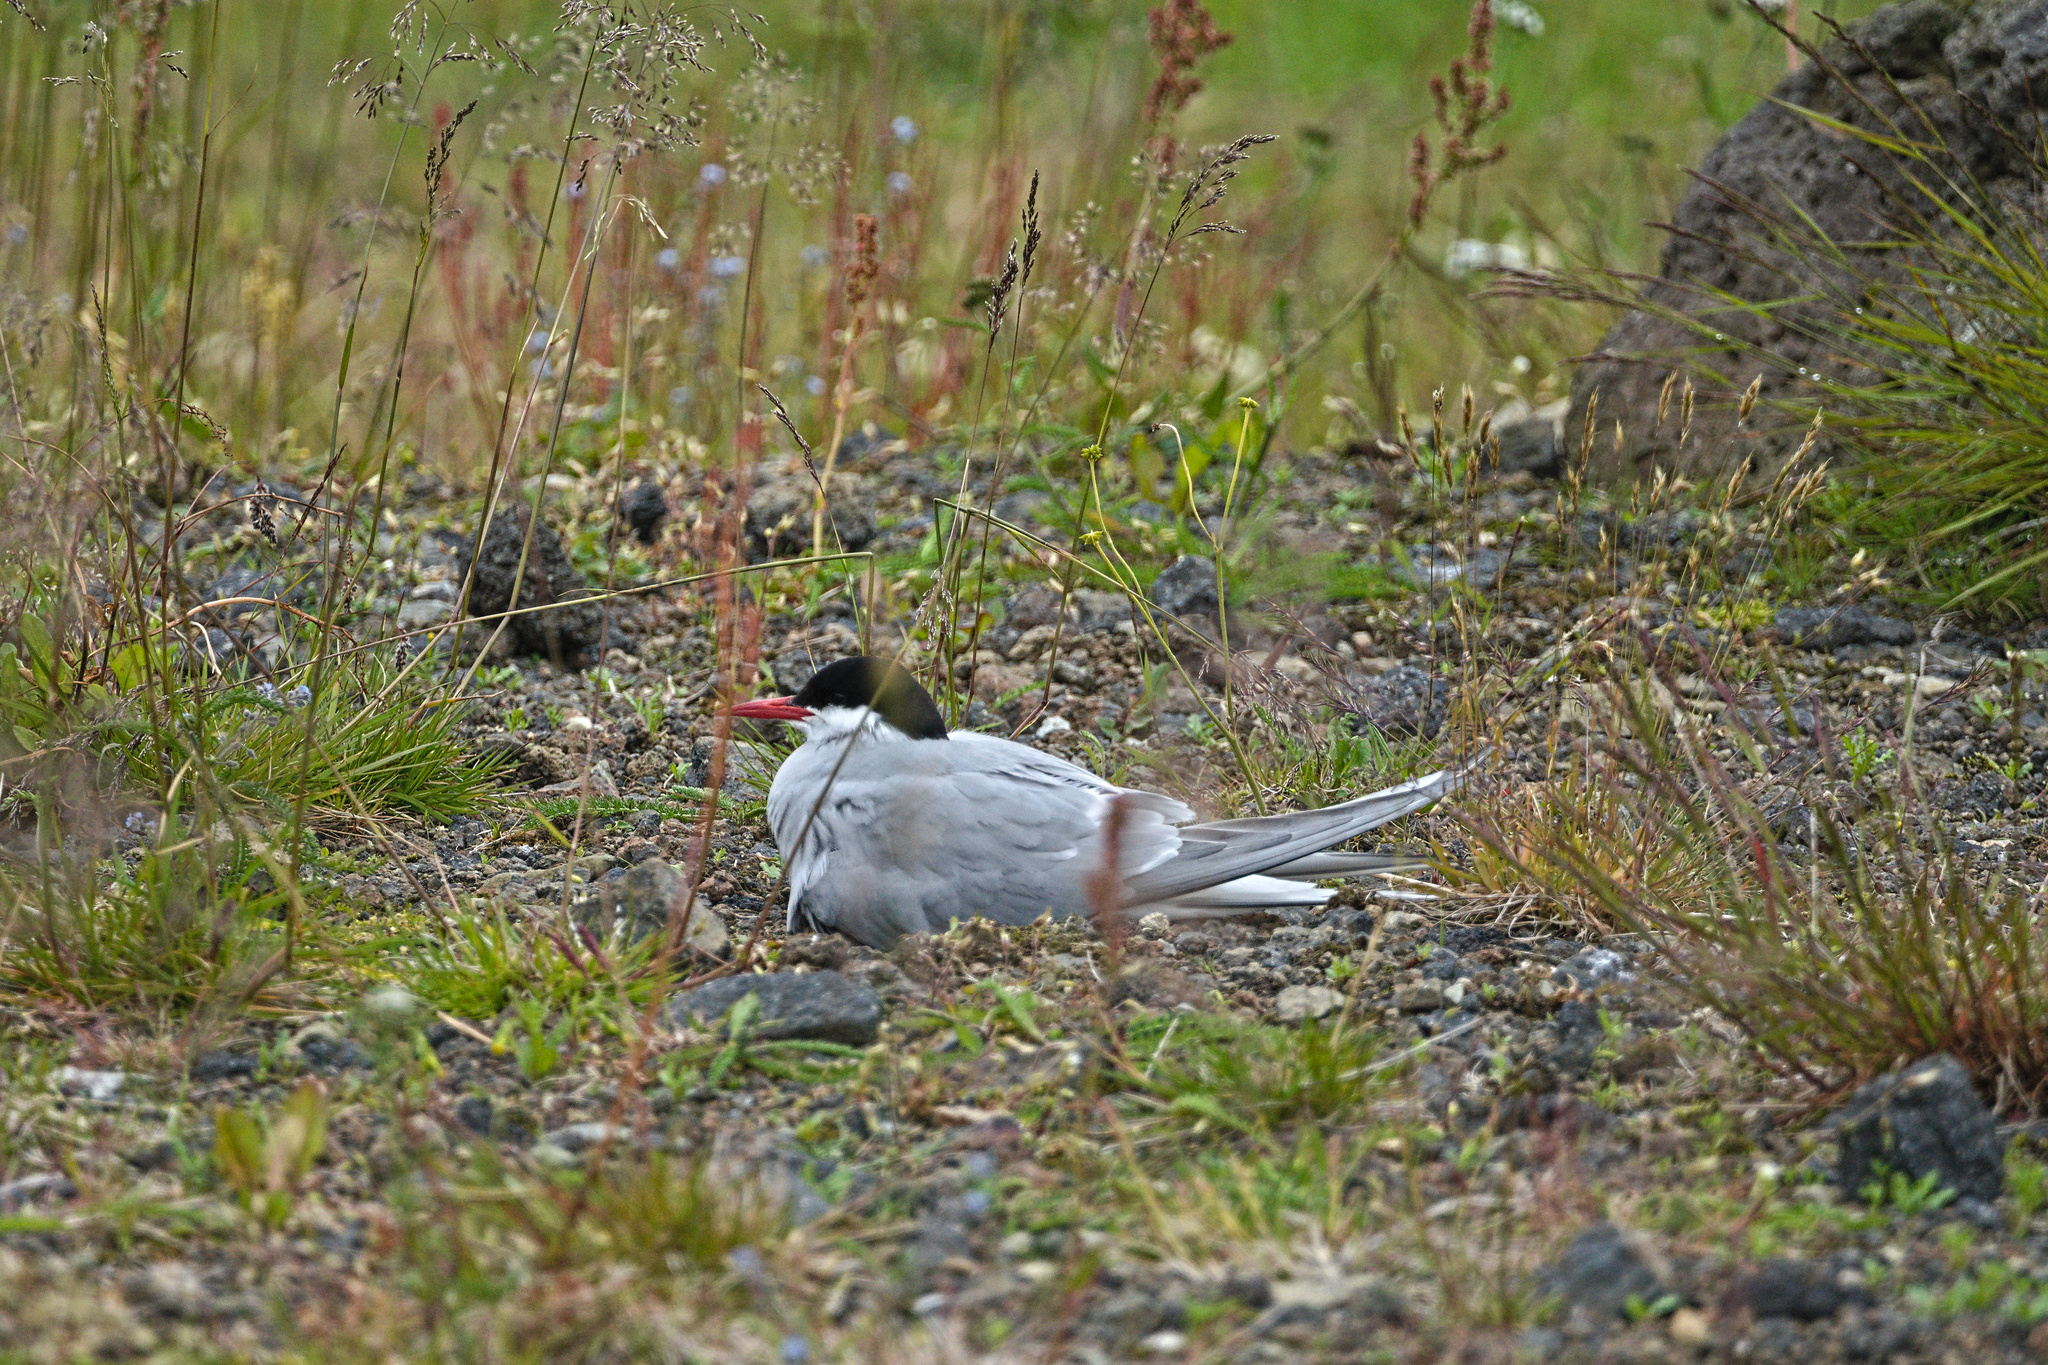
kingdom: Animalia
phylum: Chordata
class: Aves
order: Charadriiformes
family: Laridae
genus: Sterna
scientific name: Sterna paradisaea
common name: Arctic tern
